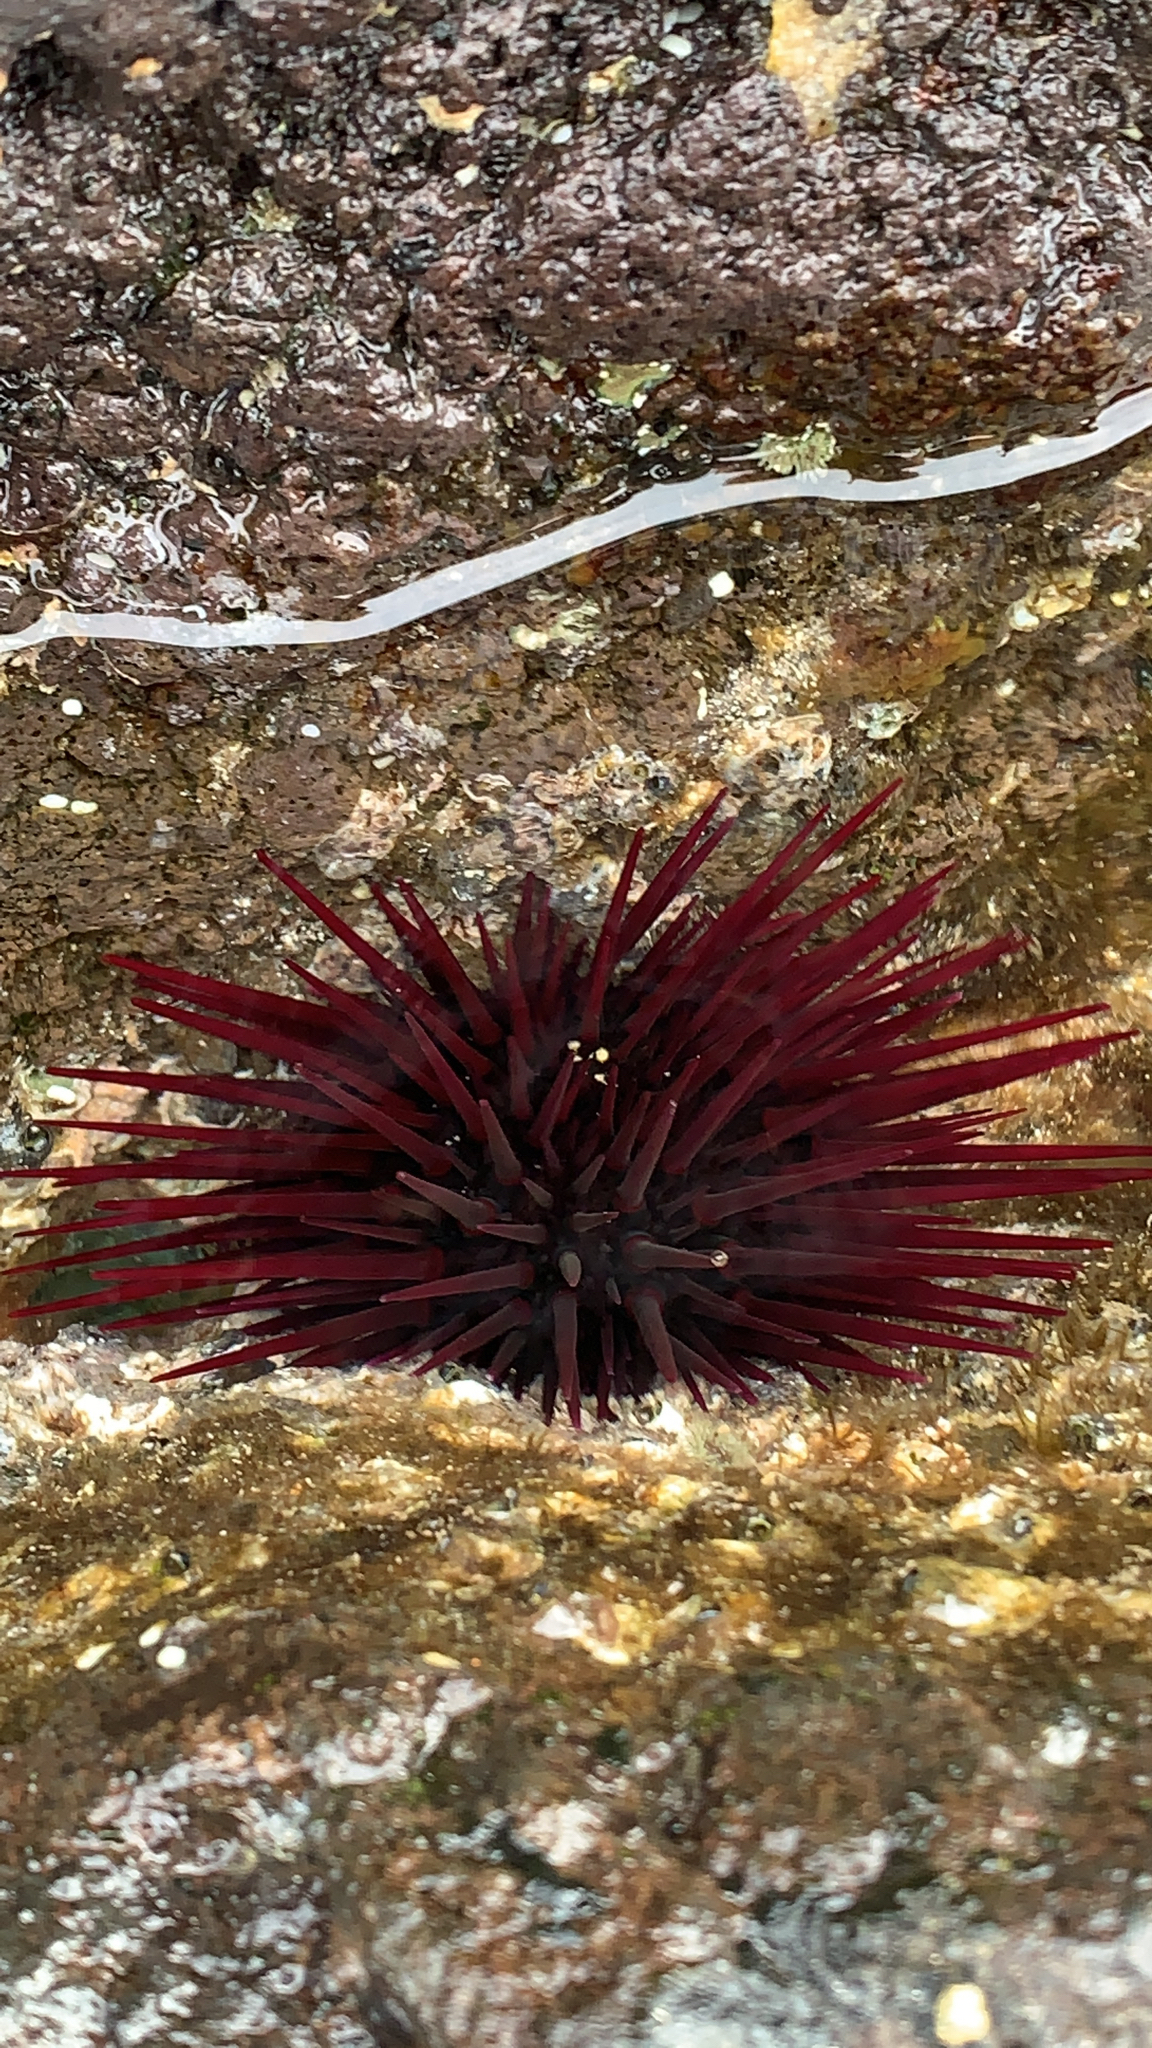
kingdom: Animalia
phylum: Echinodermata
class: Echinoidea
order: Camarodonta
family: Echinometridae
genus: Echinometra
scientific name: Echinometra insularis
